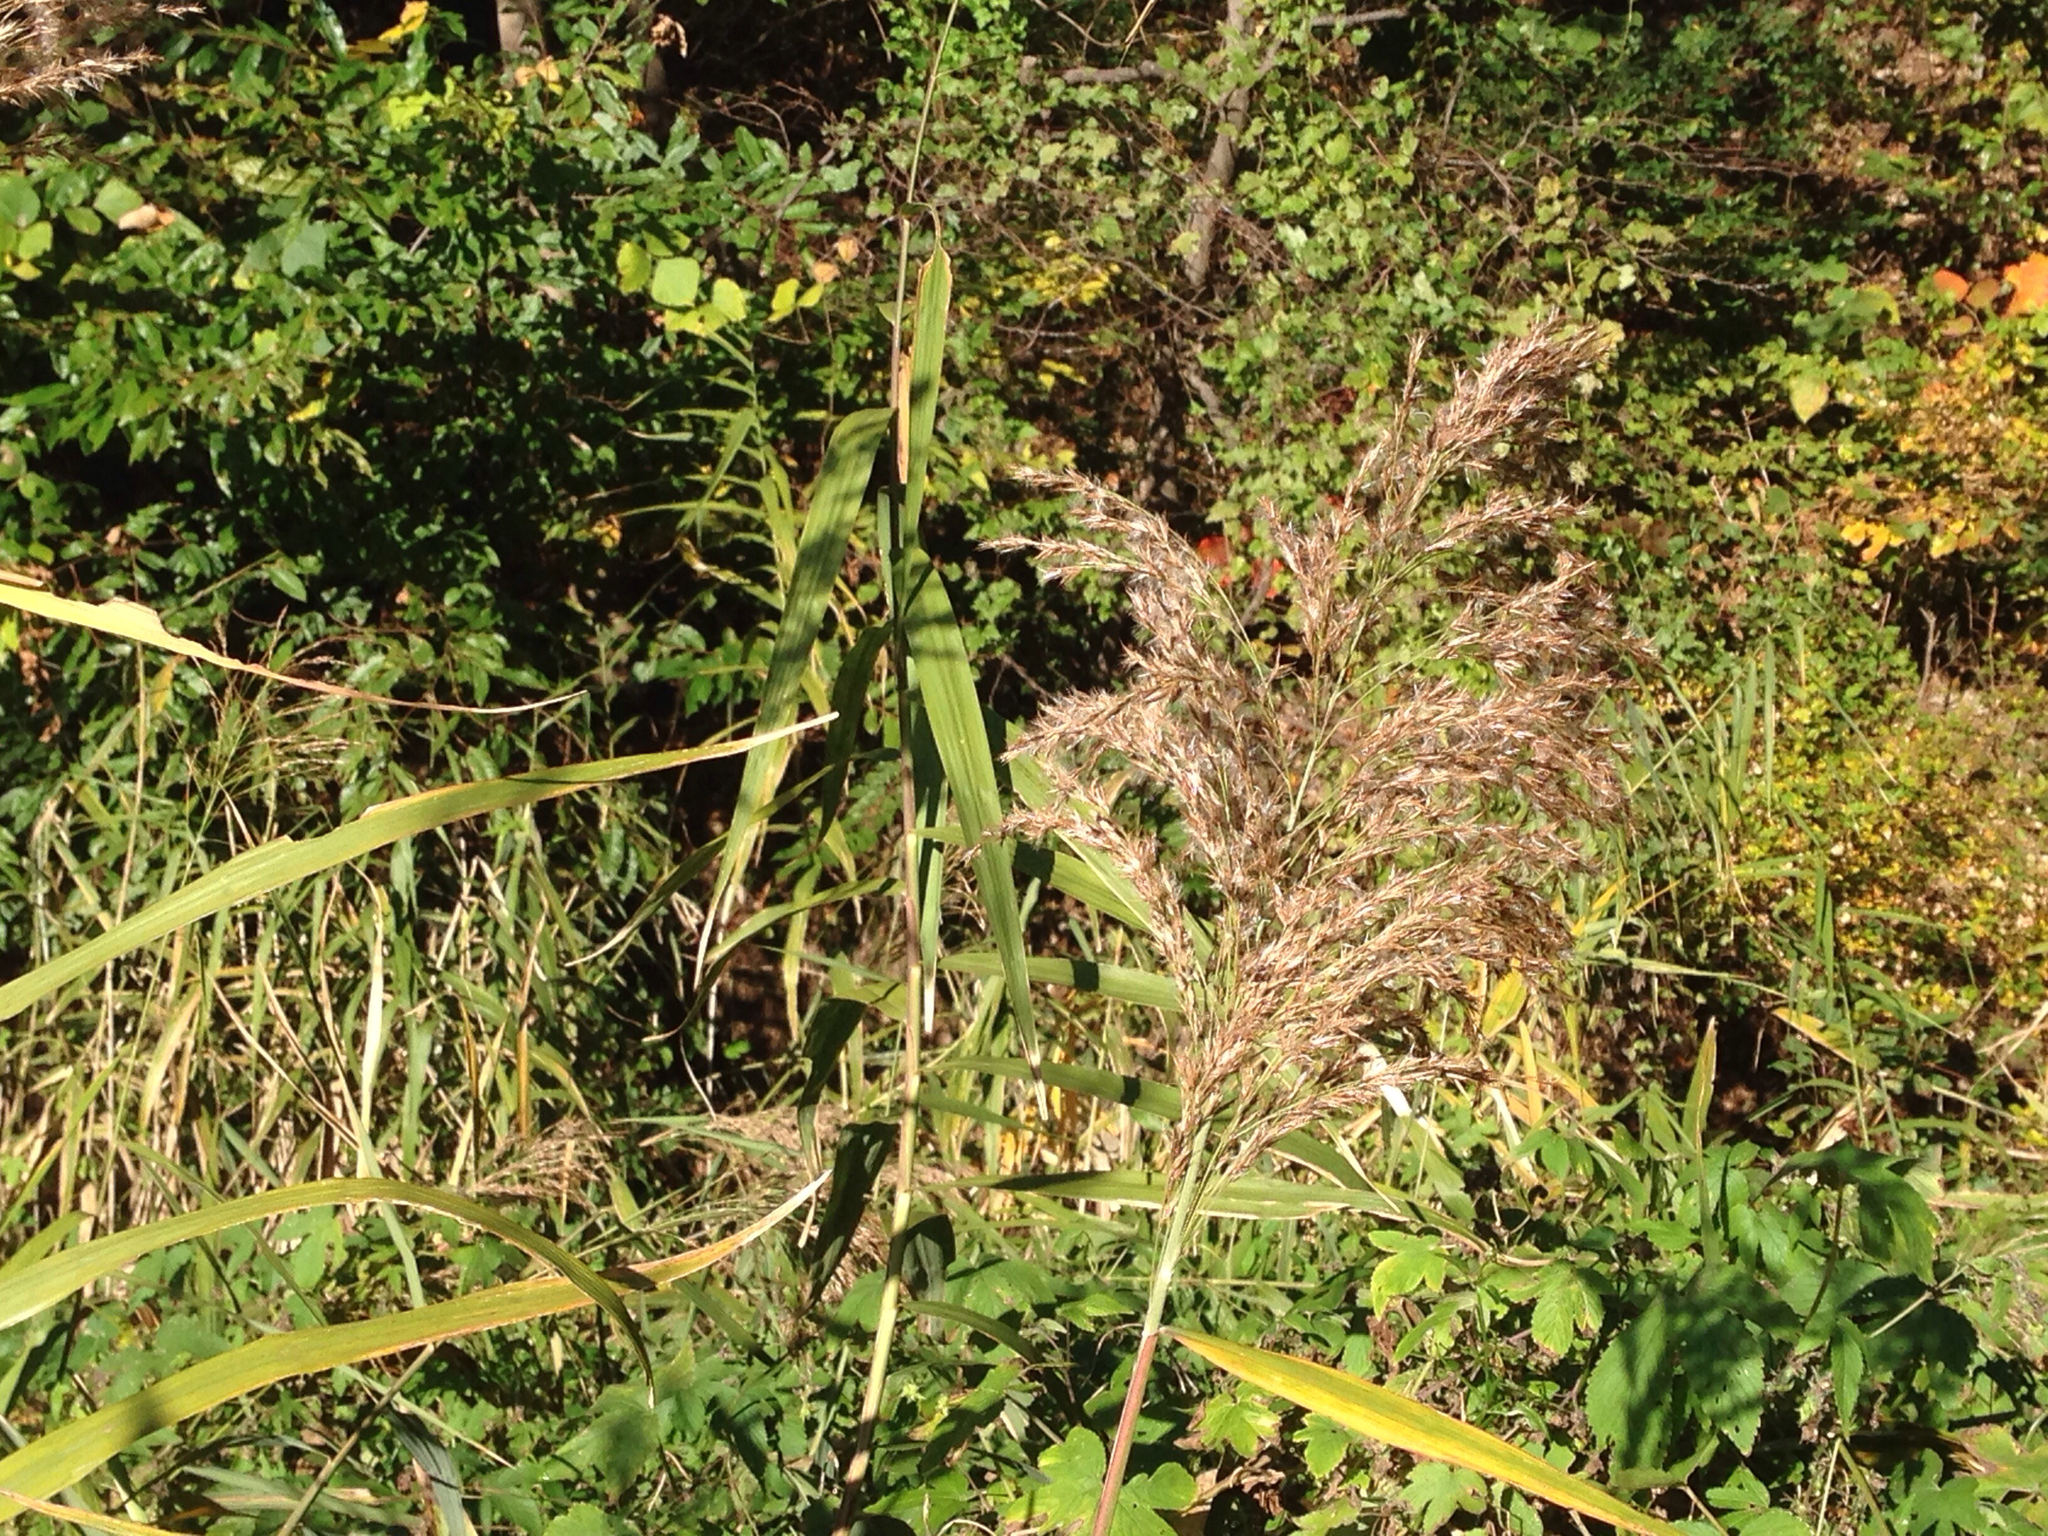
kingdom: Plantae
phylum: Tracheophyta
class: Liliopsida
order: Poales
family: Poaceae
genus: Phragmites
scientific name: Phragmites australis
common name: Common reed
